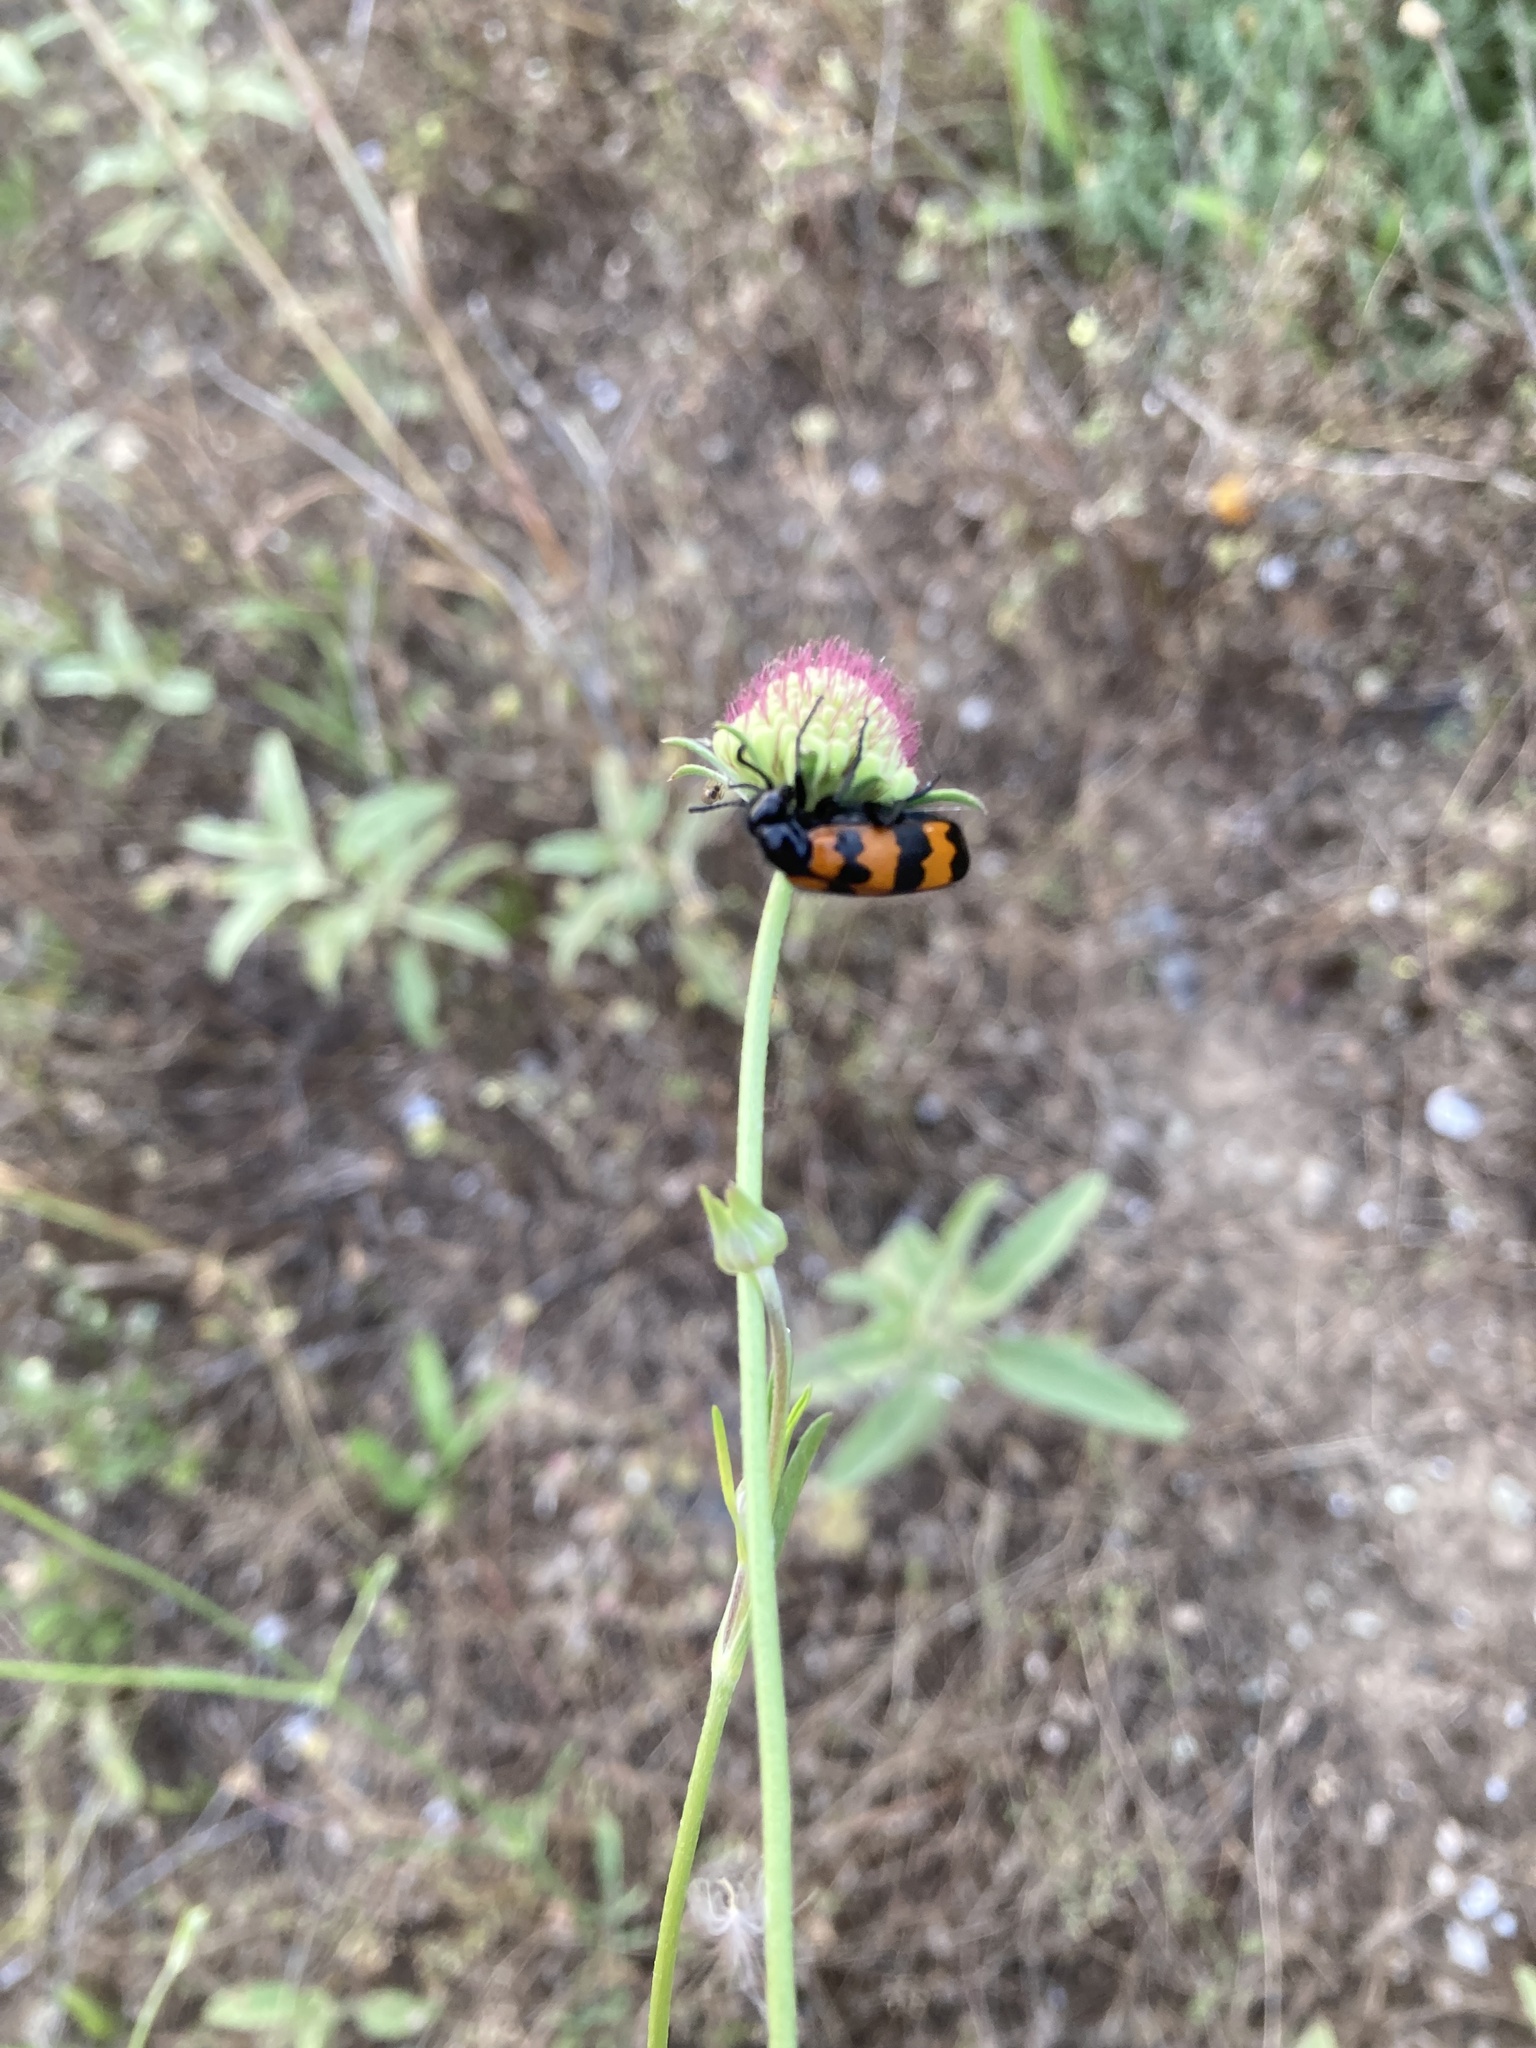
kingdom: Animalia
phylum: Arthropoda
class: Insecta
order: Coleoptera
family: Meloidae
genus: Mylabris
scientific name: Mylabris variabilis
